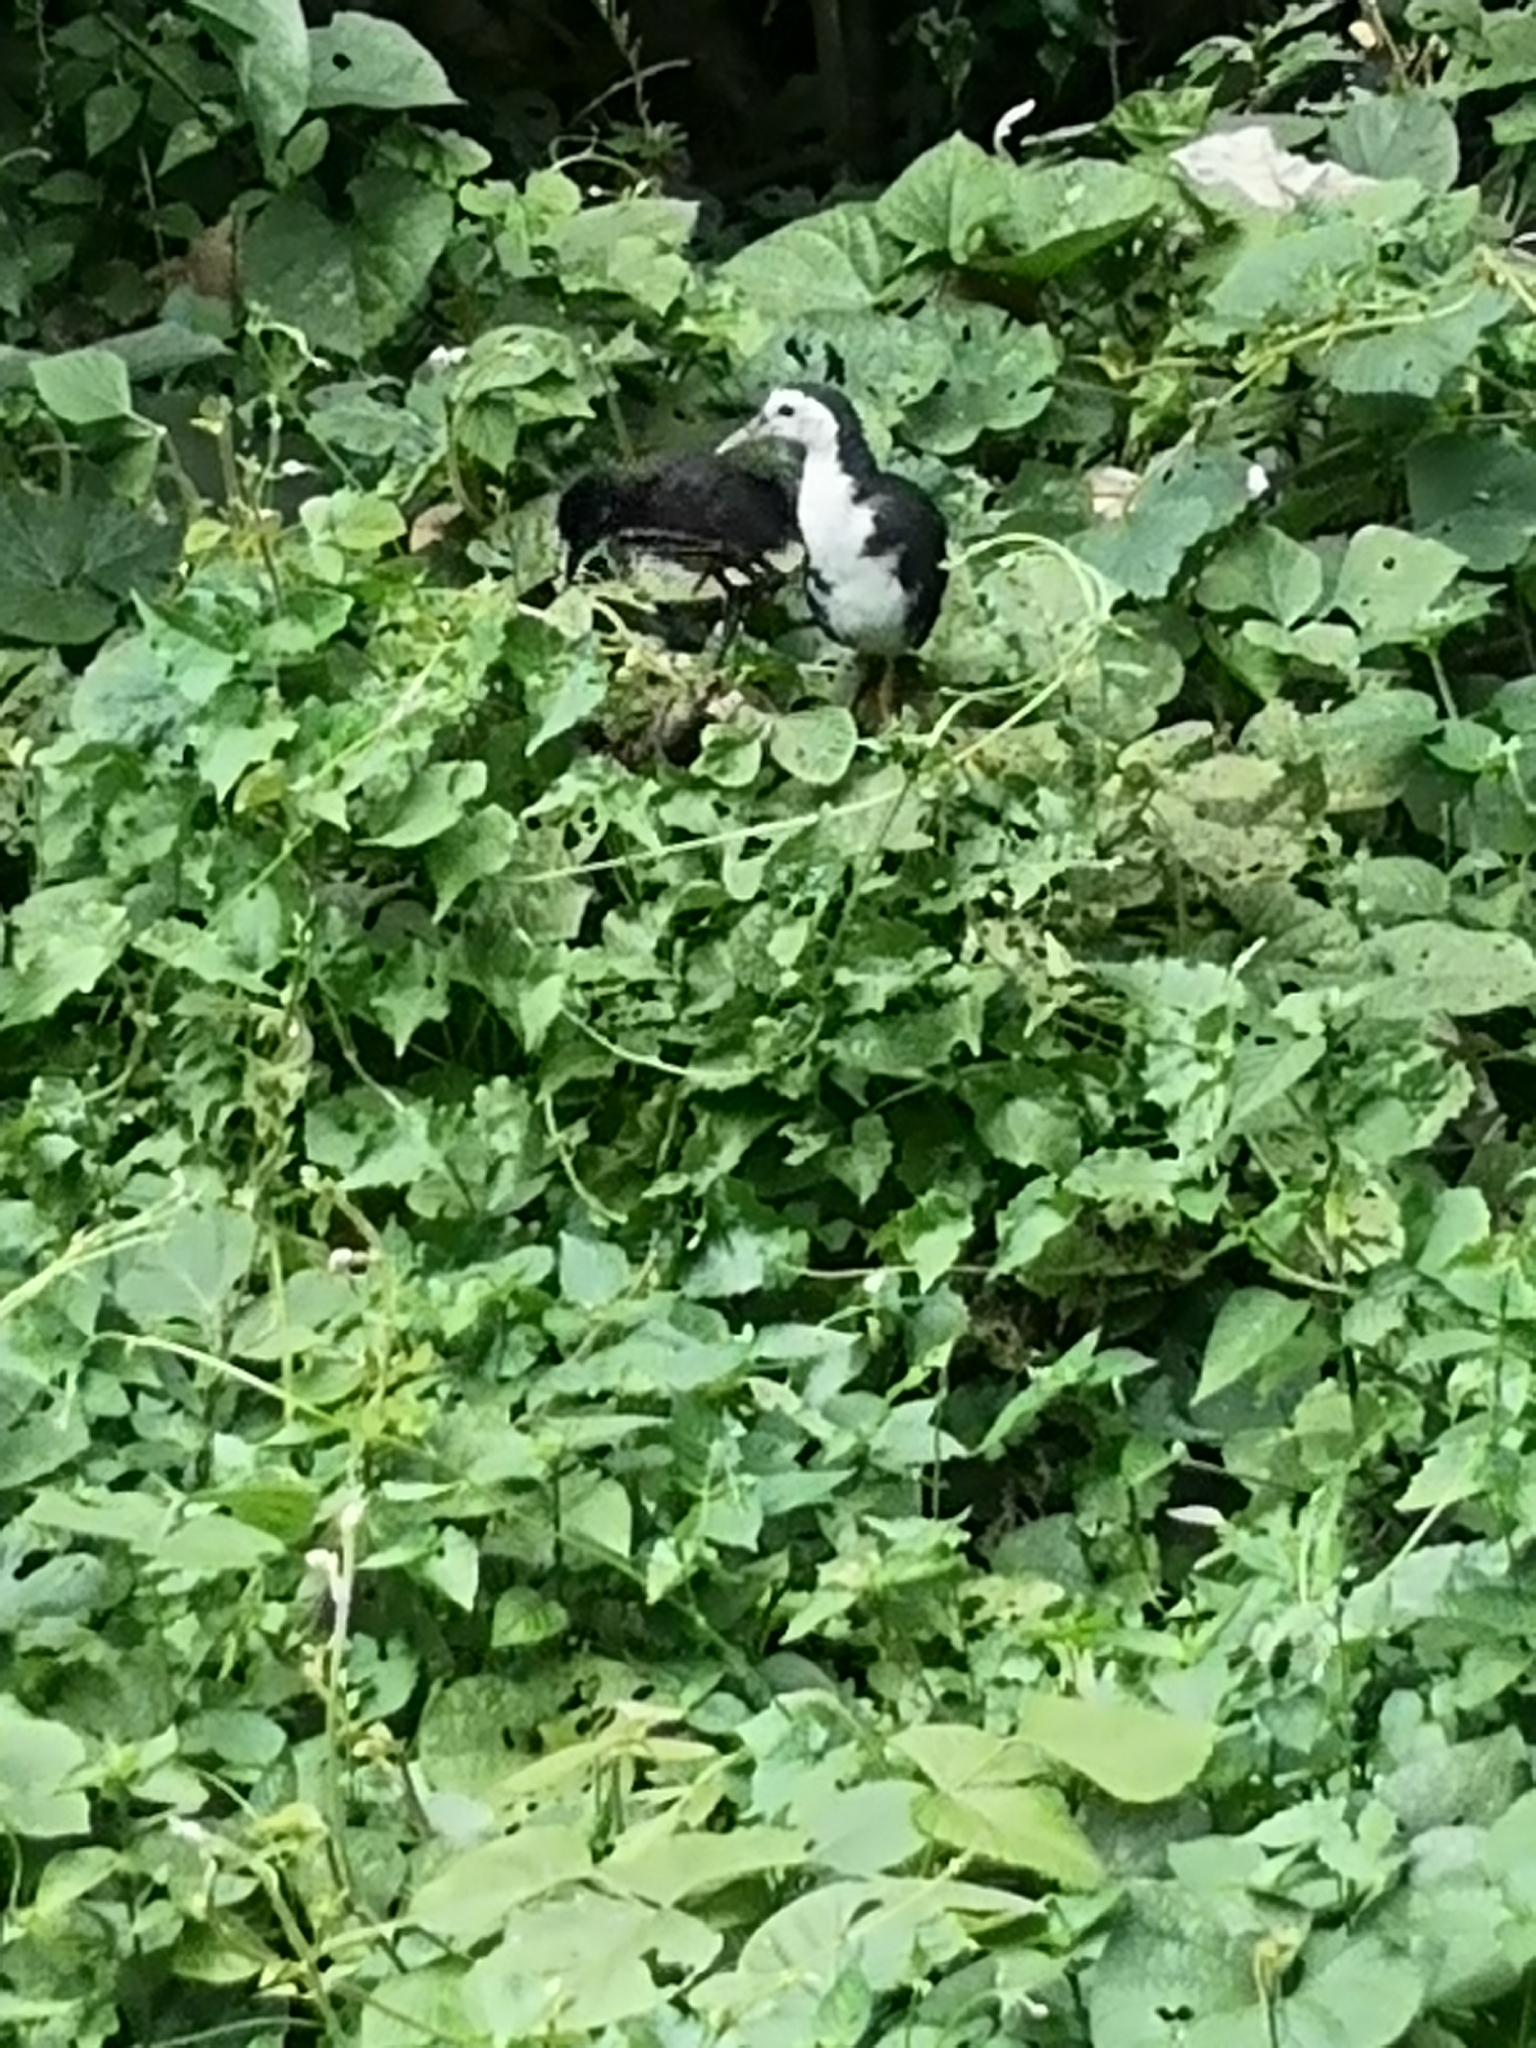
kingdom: Animalia
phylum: Chordata
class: Aves
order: Gruiformes
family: Rallidae
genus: Amaurornis
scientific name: Amaurornis phoenicurus
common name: White-breasted waterhen
